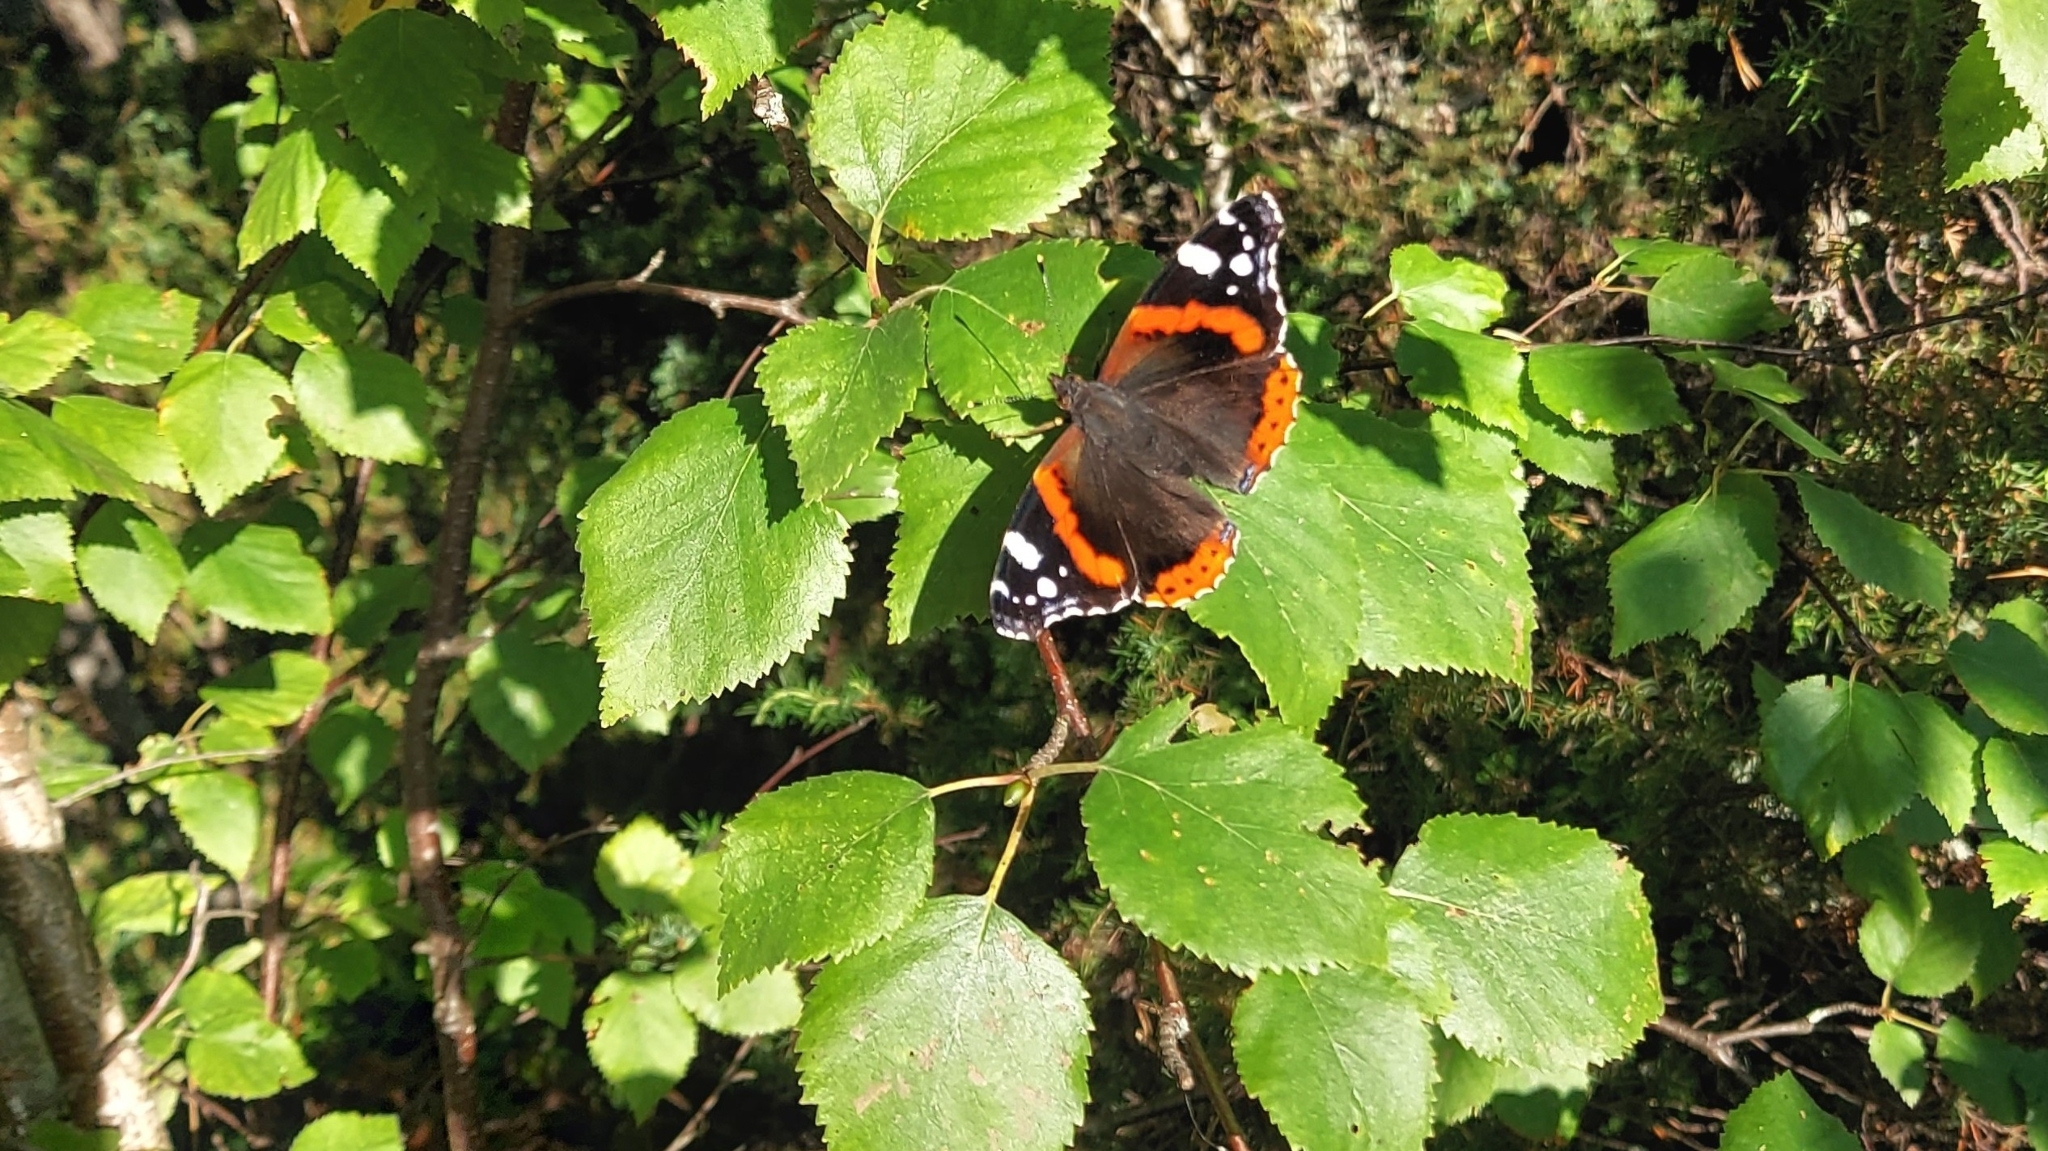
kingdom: Animalia
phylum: Arthropoda
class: Insecta
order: Lepidoptera
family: Nymphalidae
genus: Vanessa
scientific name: Vanessa atalanta
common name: Red admiral
